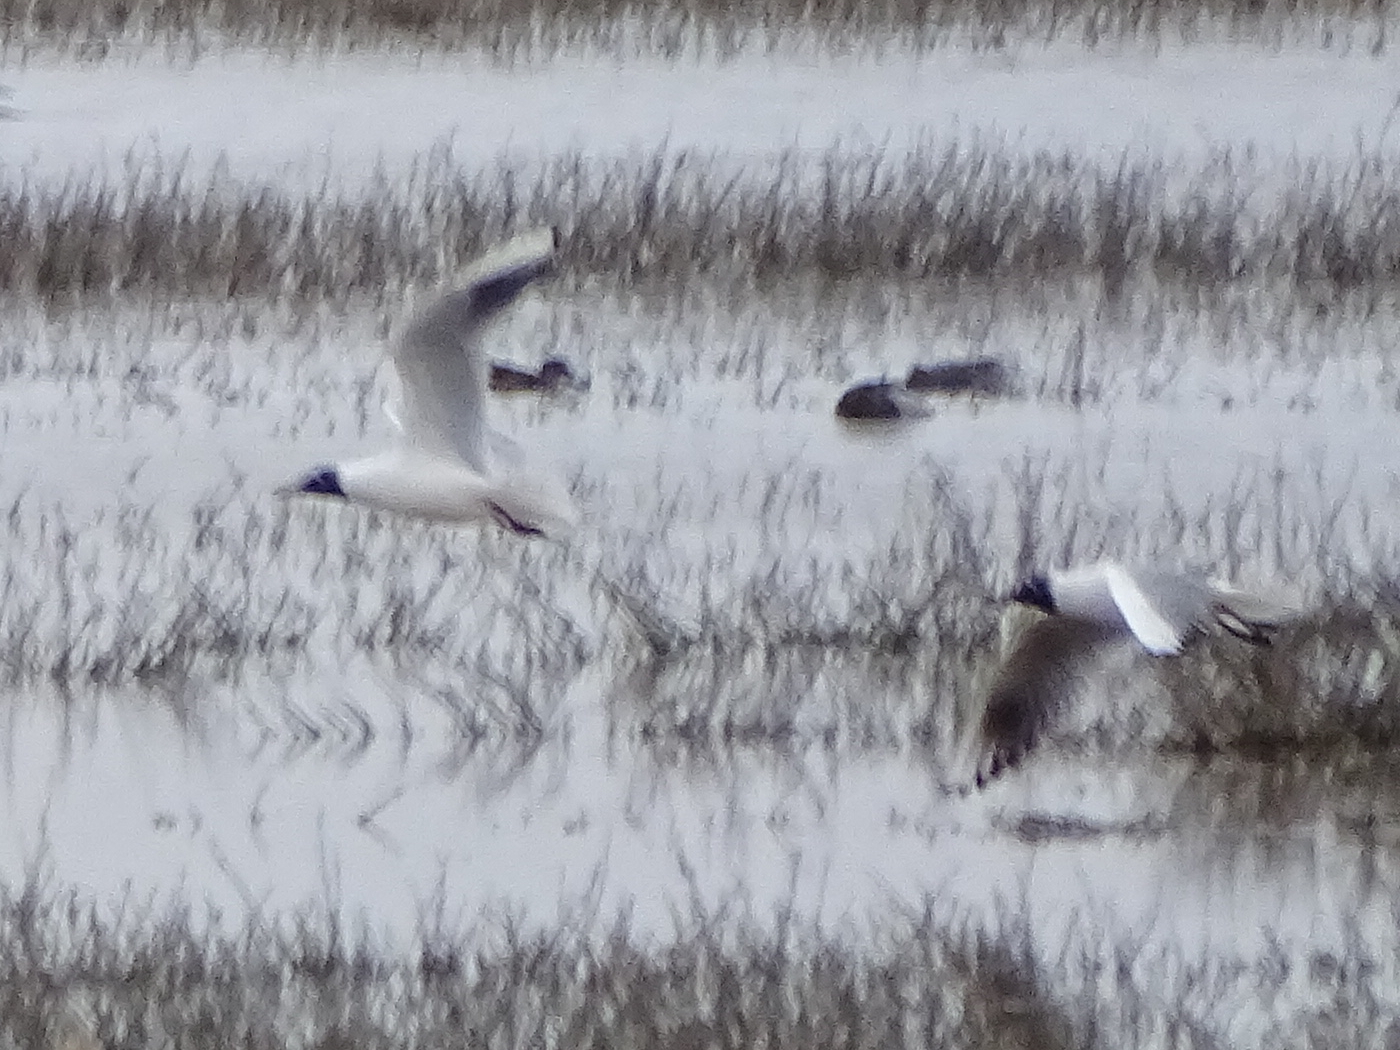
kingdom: Animalia
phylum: Chordata
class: Aves
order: Charadriiformes
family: Laridae
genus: Chroicocephalus
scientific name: Chroicocephalus ridibundus
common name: Black-headed gull
